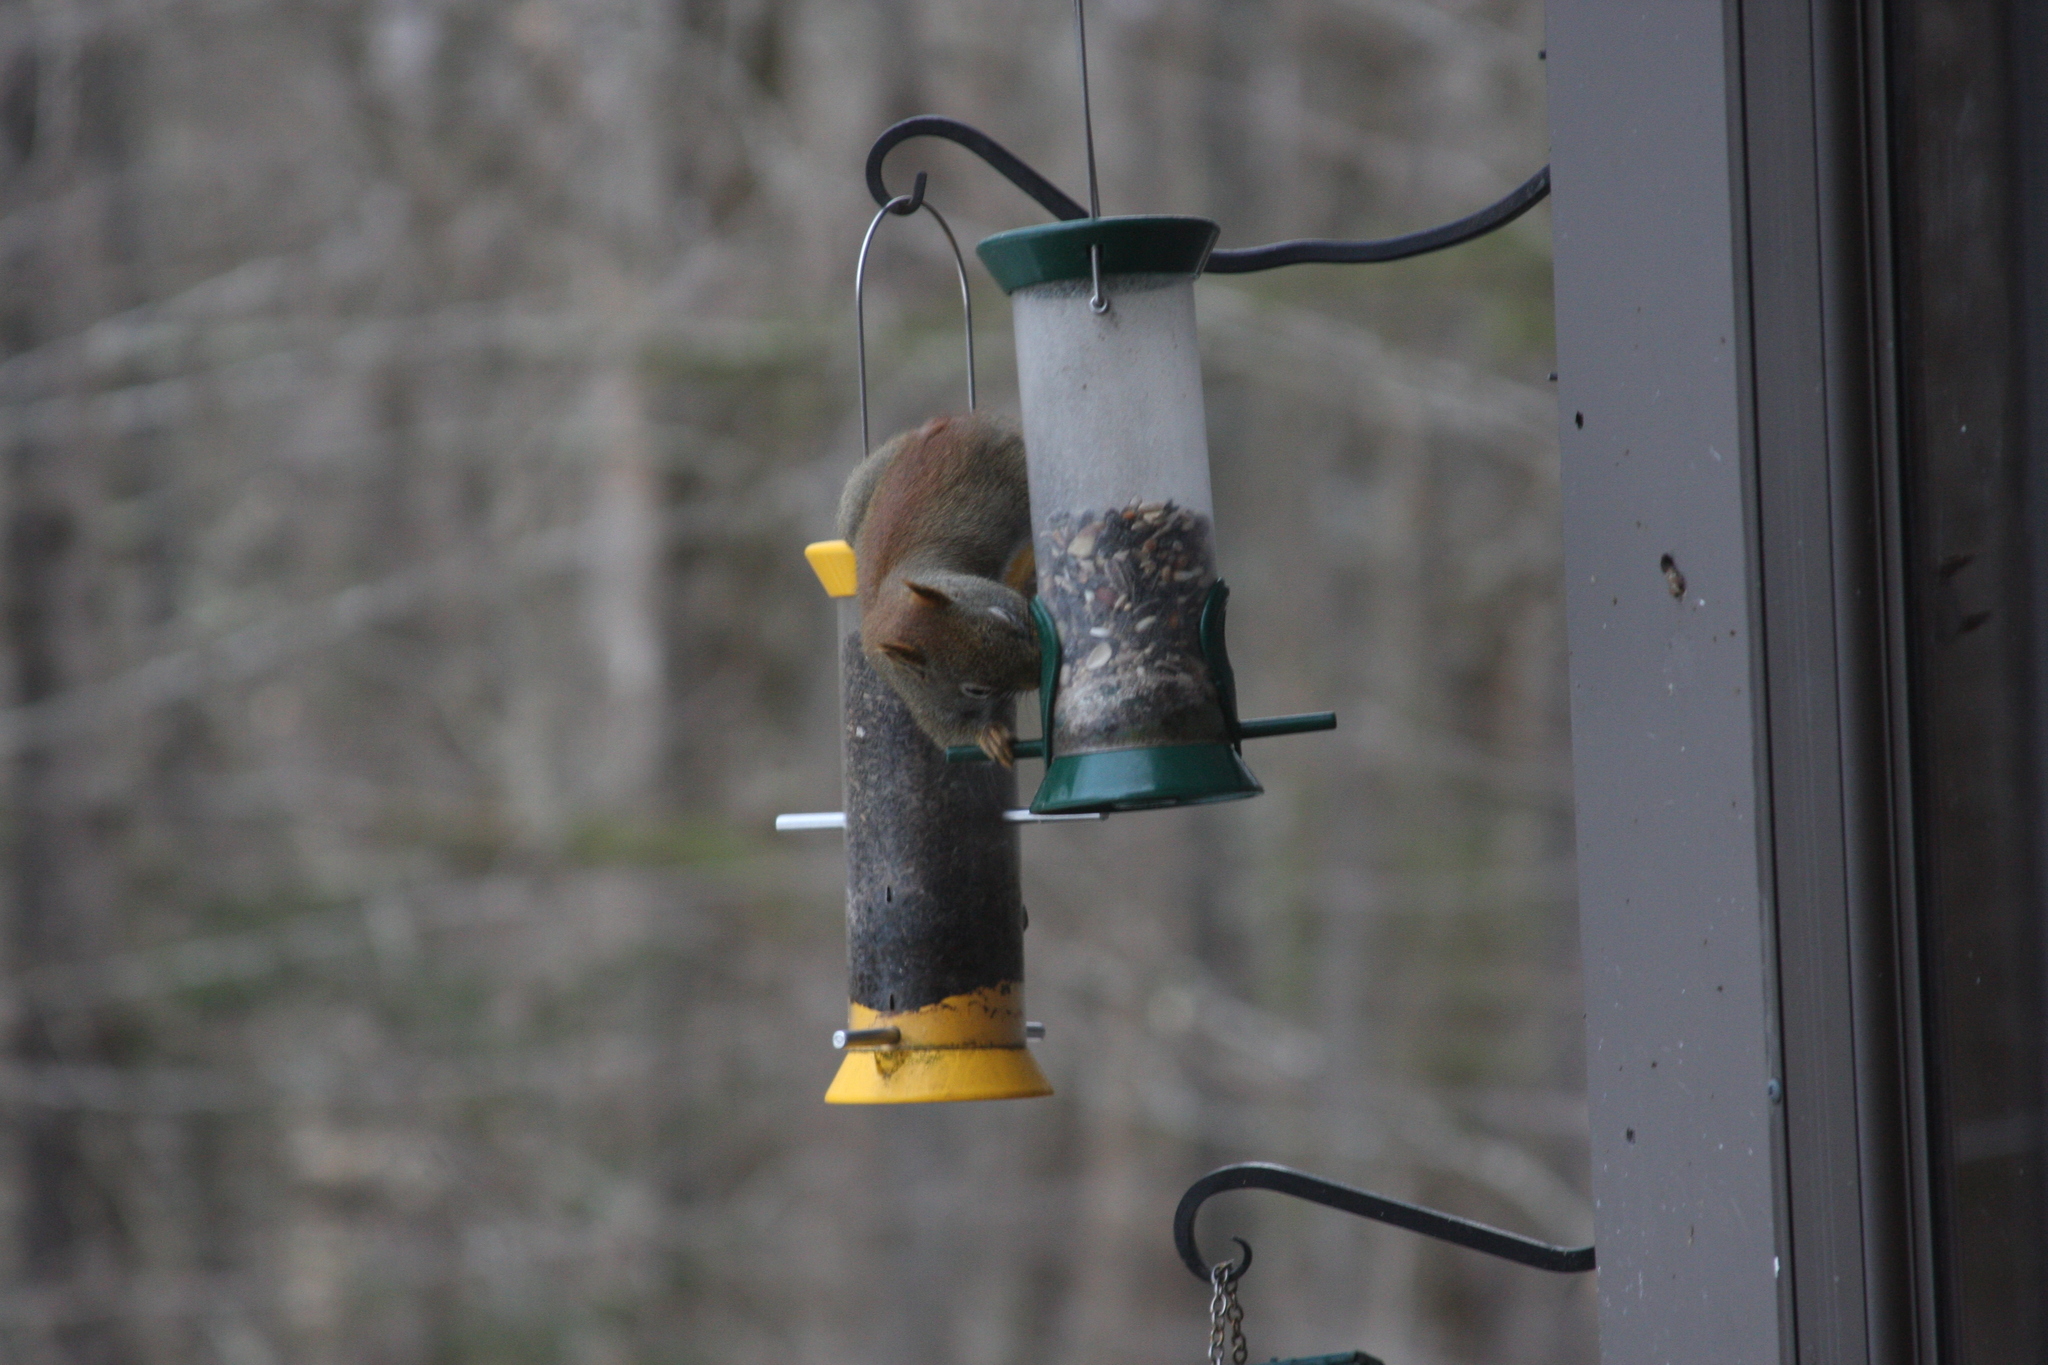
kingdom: Animalia
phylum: Chordata
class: Mammalia
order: Rodentia
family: Sciuridae
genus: Tamiasciurus
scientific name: Tamiasciurus hudsonicus
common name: Red squirrel
